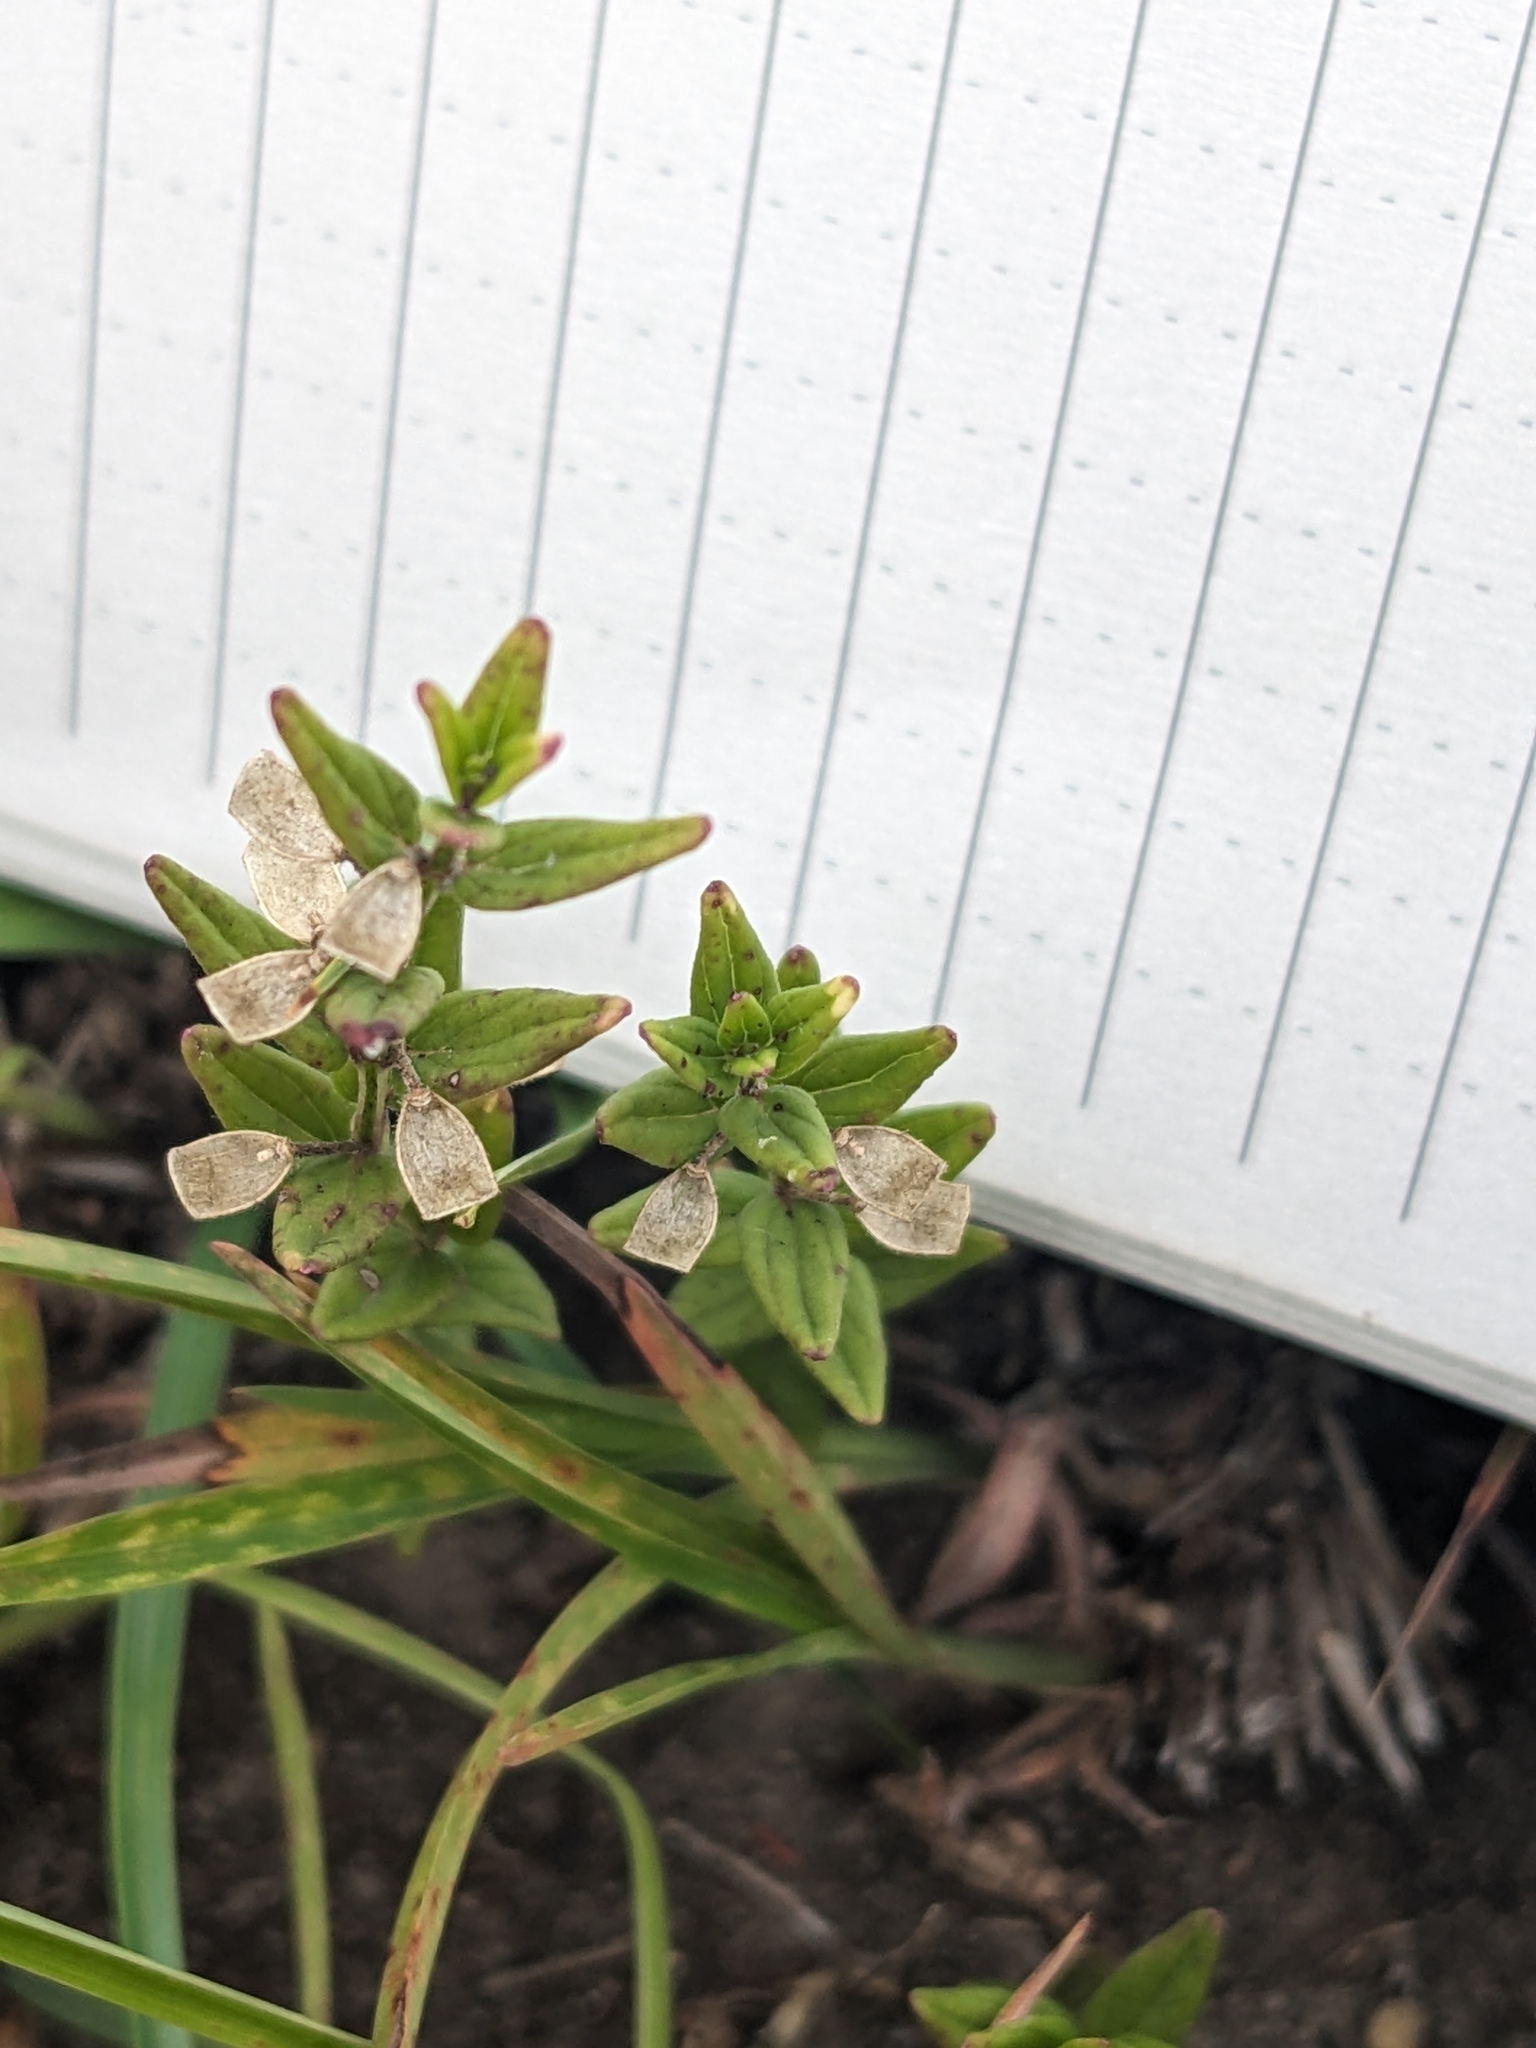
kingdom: Plantae
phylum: Tracheophyta
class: Magnoliopsida
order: Lamiales
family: Lamiaceae
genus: Scutellaria
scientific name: Scutellaria parvula
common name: Little scullcap
